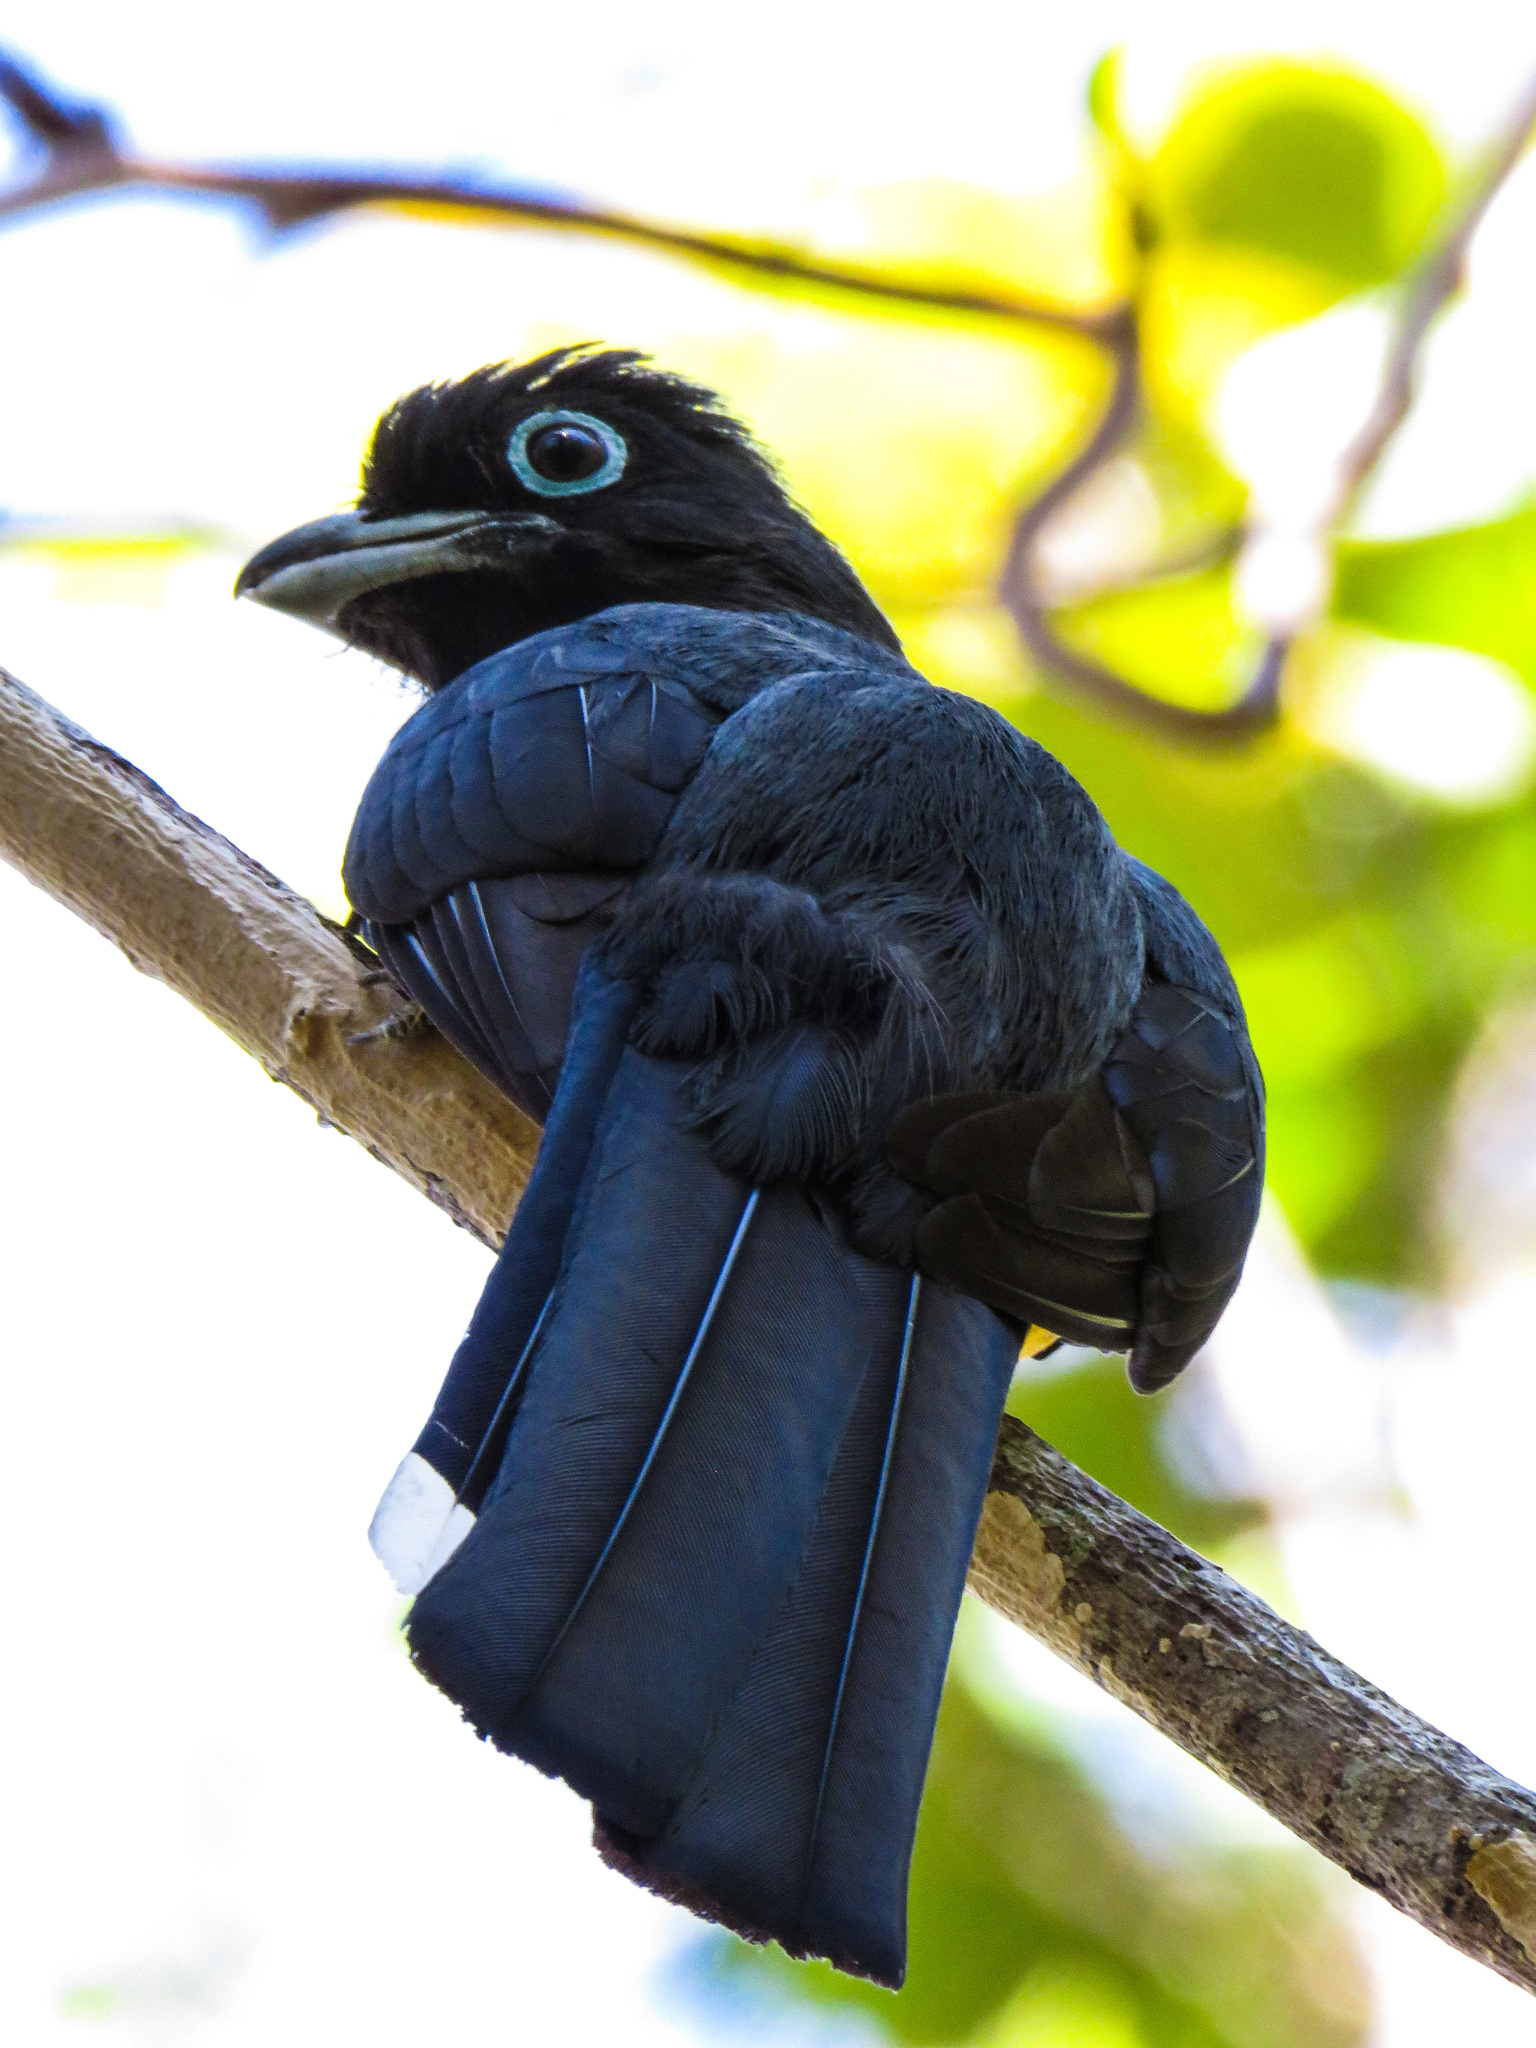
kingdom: Animalia
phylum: Chordata
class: Aves
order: Trogoniformes
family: Trogonidae
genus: Trogon
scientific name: Trogon melanocephalus
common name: Black-headed trogon
